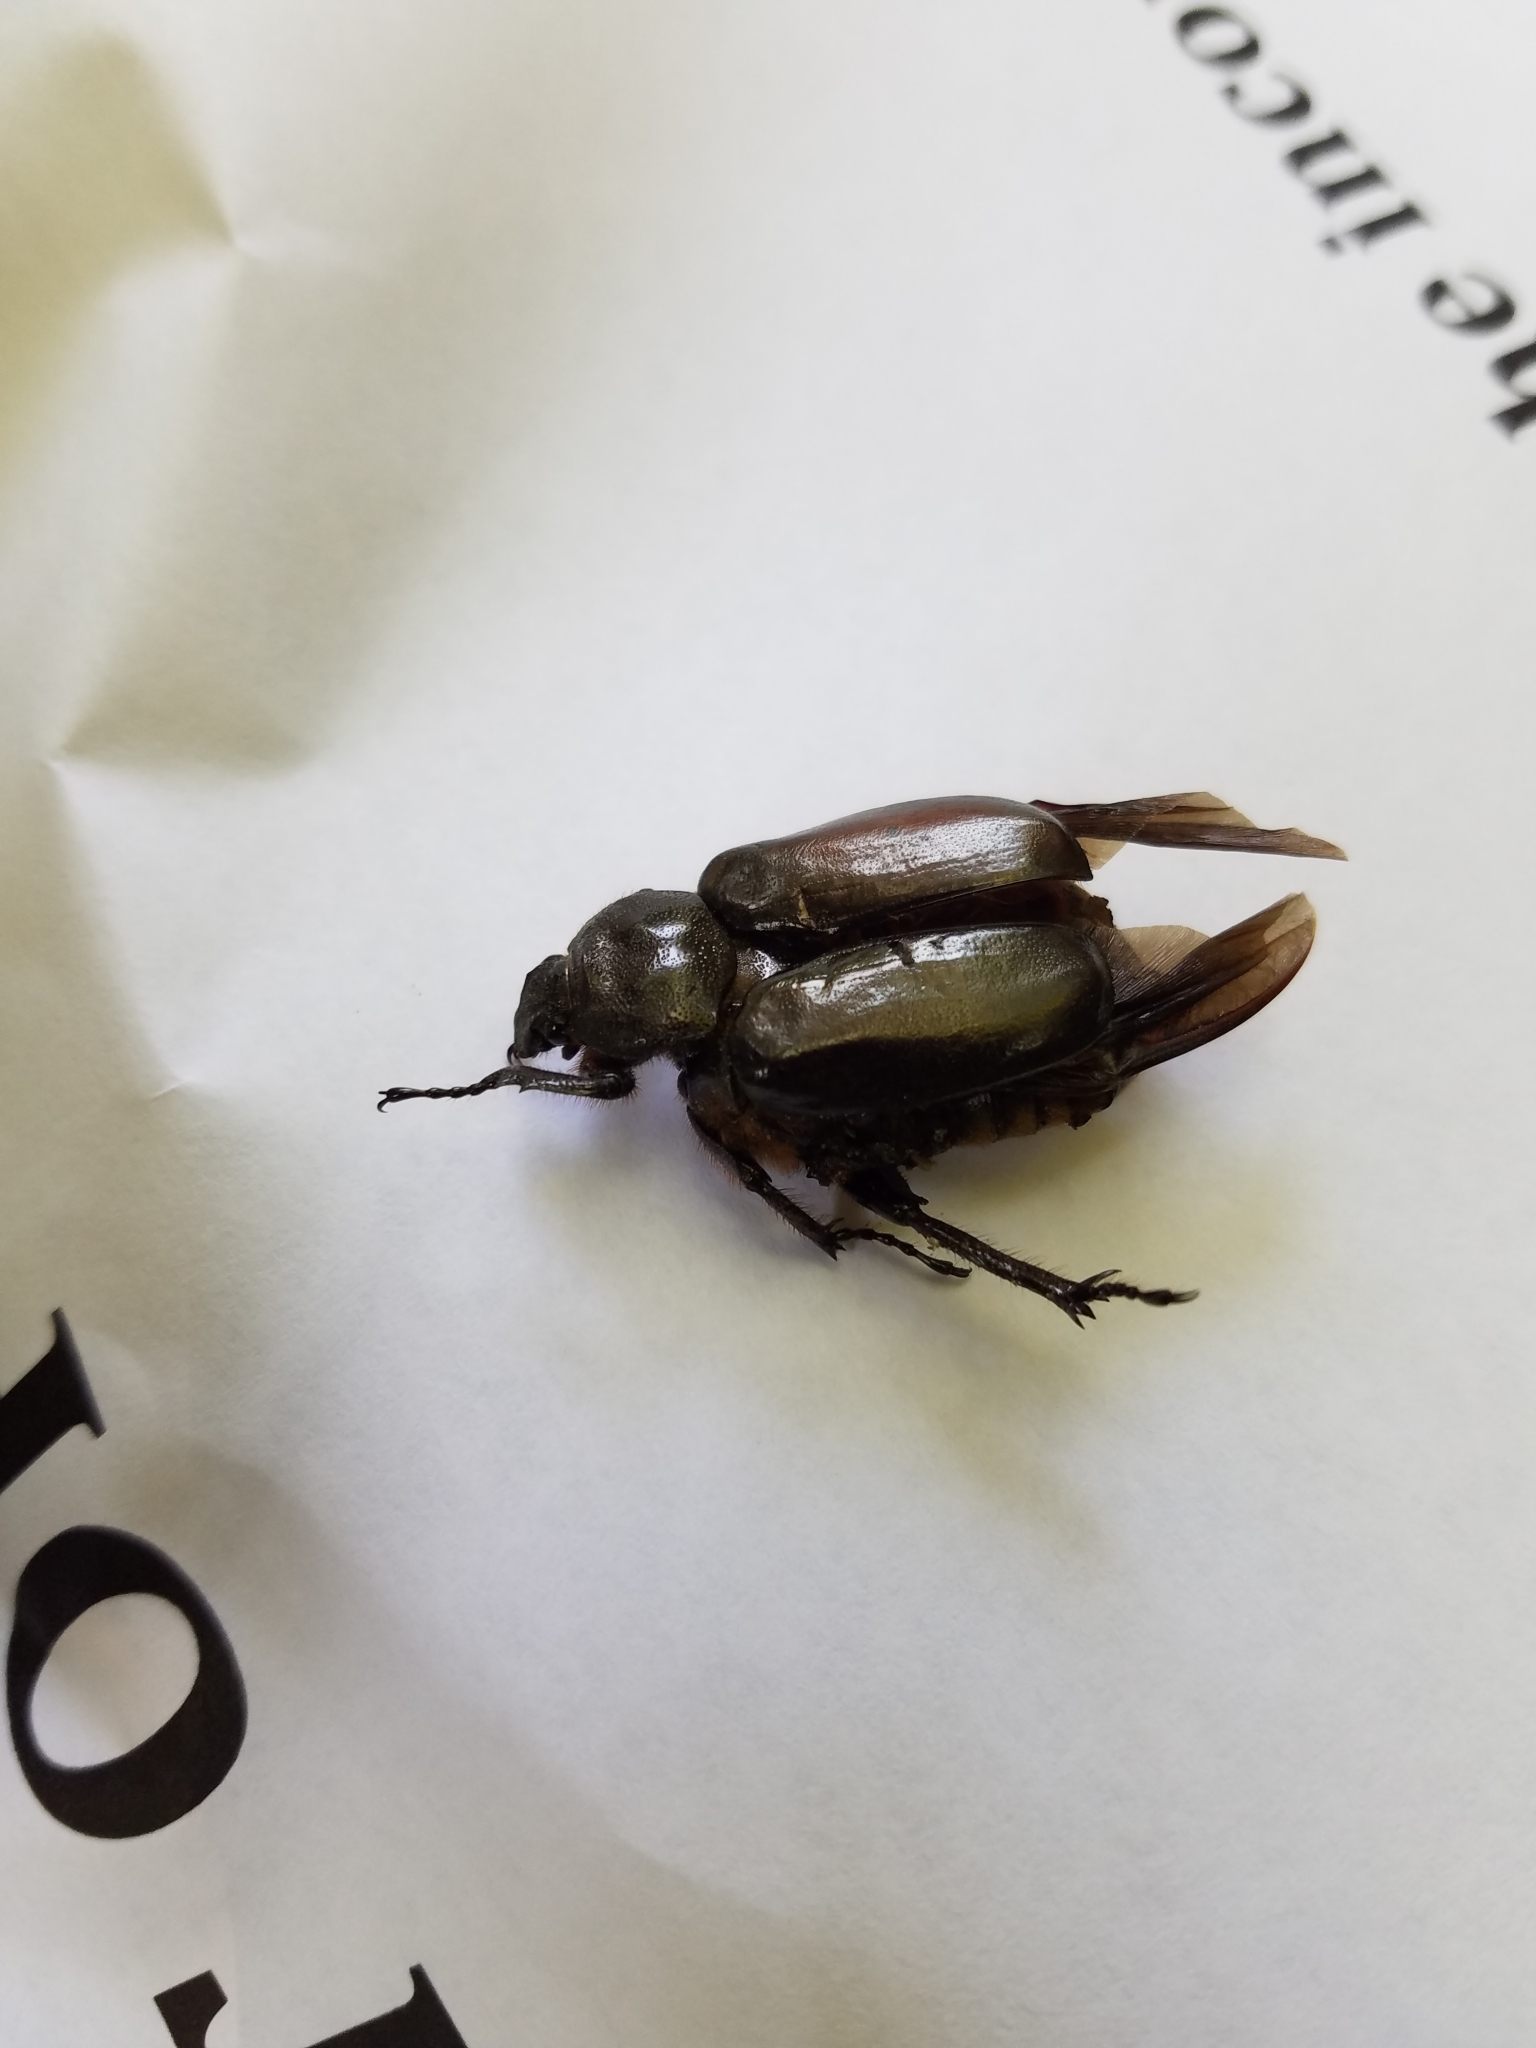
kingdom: Animalia
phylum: Arthropoda
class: Insecta
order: Coleoptera
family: Scarabaeidae
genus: Osmoderma
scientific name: Osmoderma eremicola
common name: Hermit flower beetle
